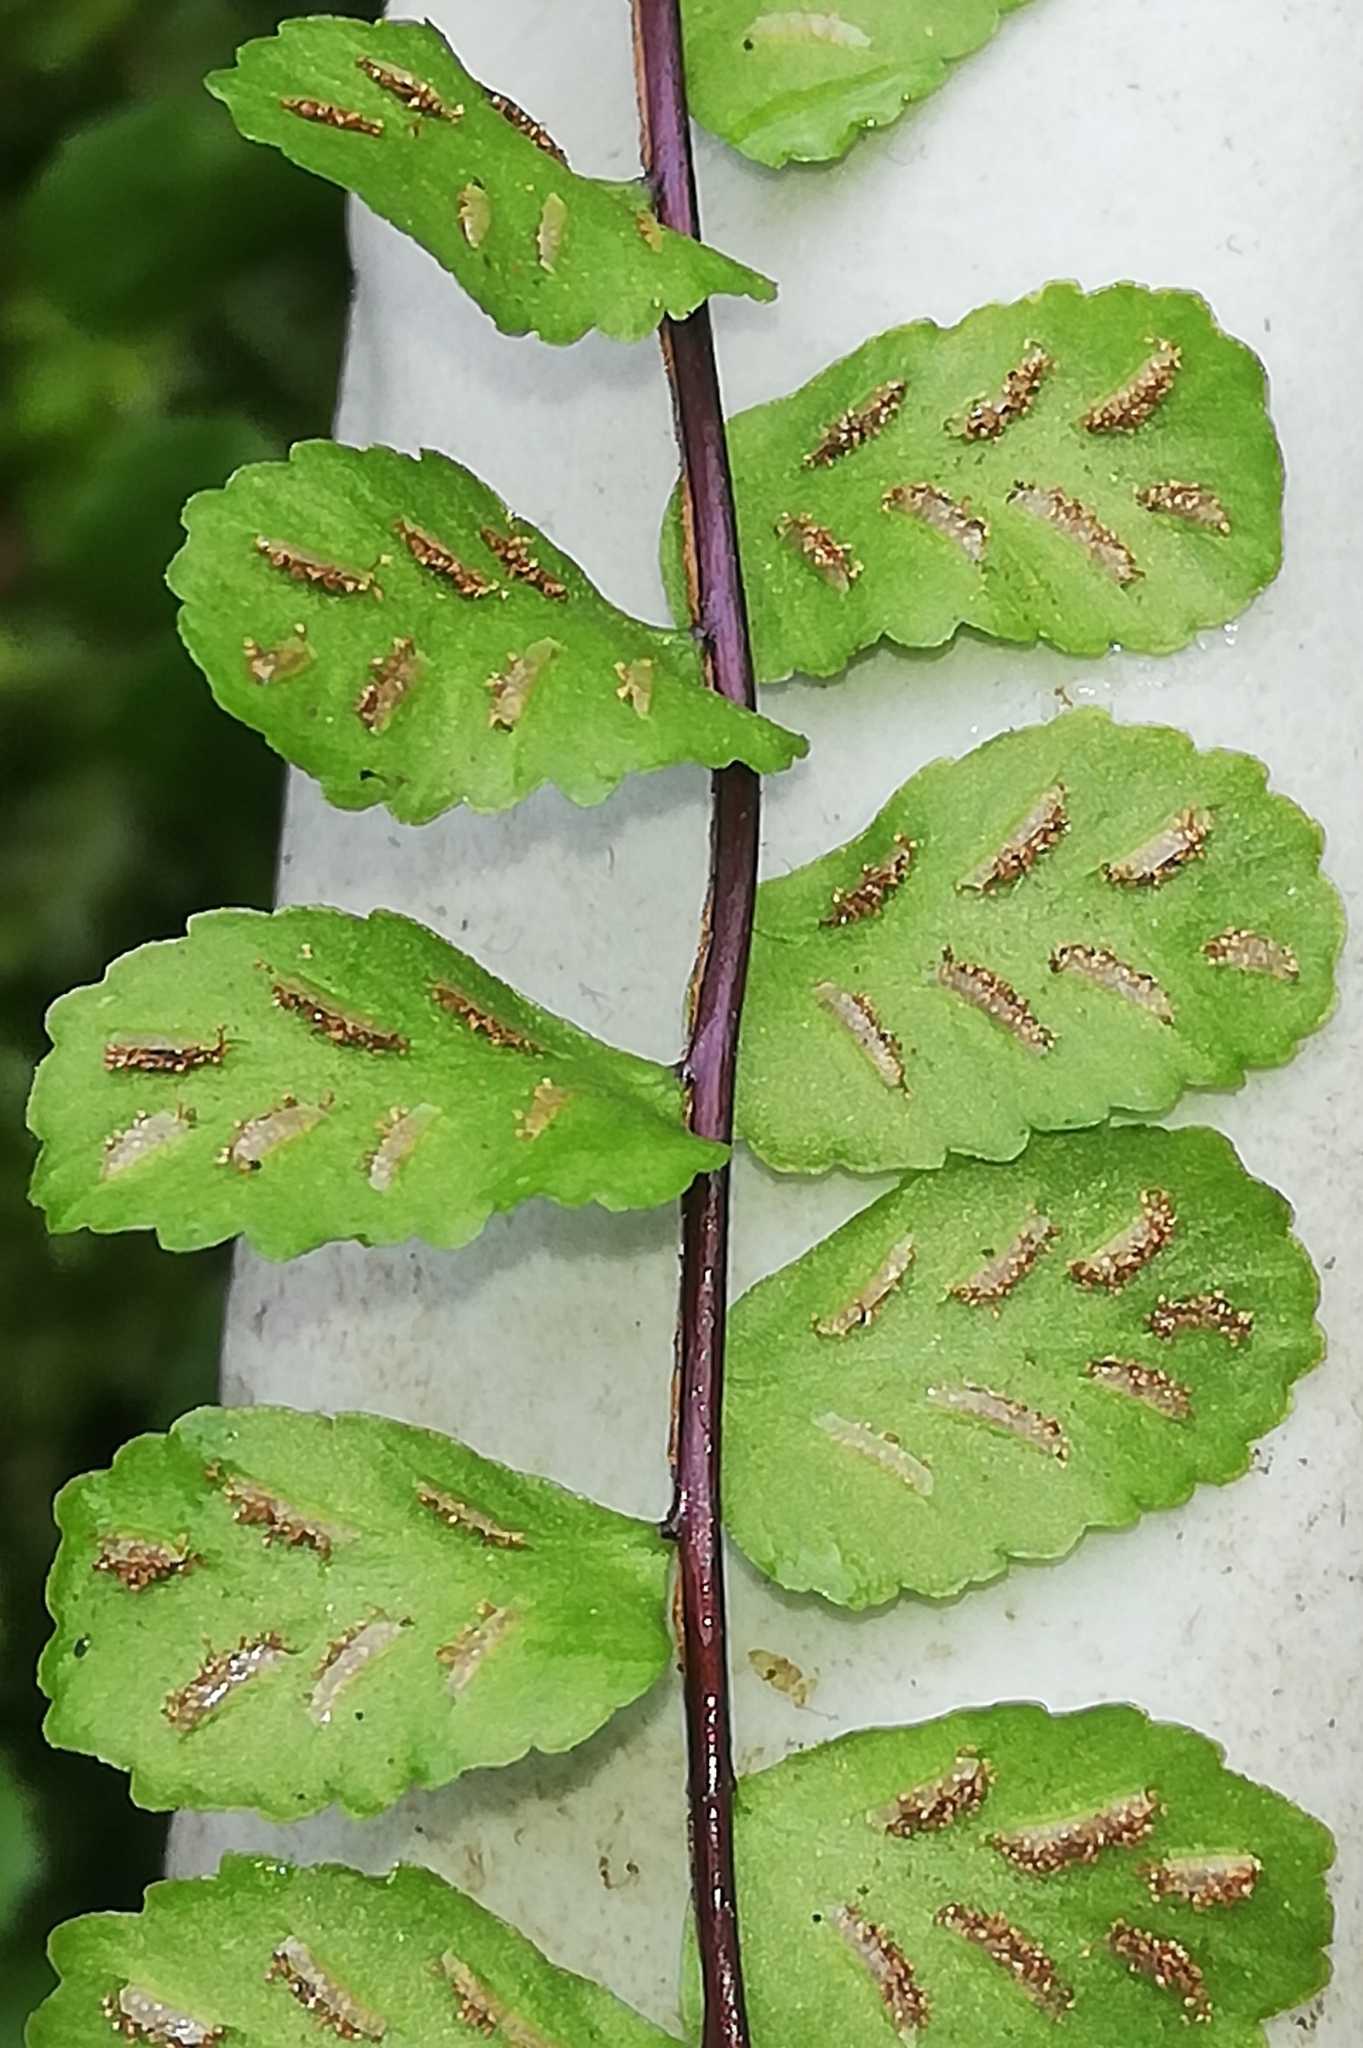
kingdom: Plantae
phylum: Tracheophyta
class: Polypodiopsida
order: Polypodiales
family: Aspleniaceae
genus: Asplenium
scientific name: Asplenium trichomanes
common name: Maidenhair spleenwort
